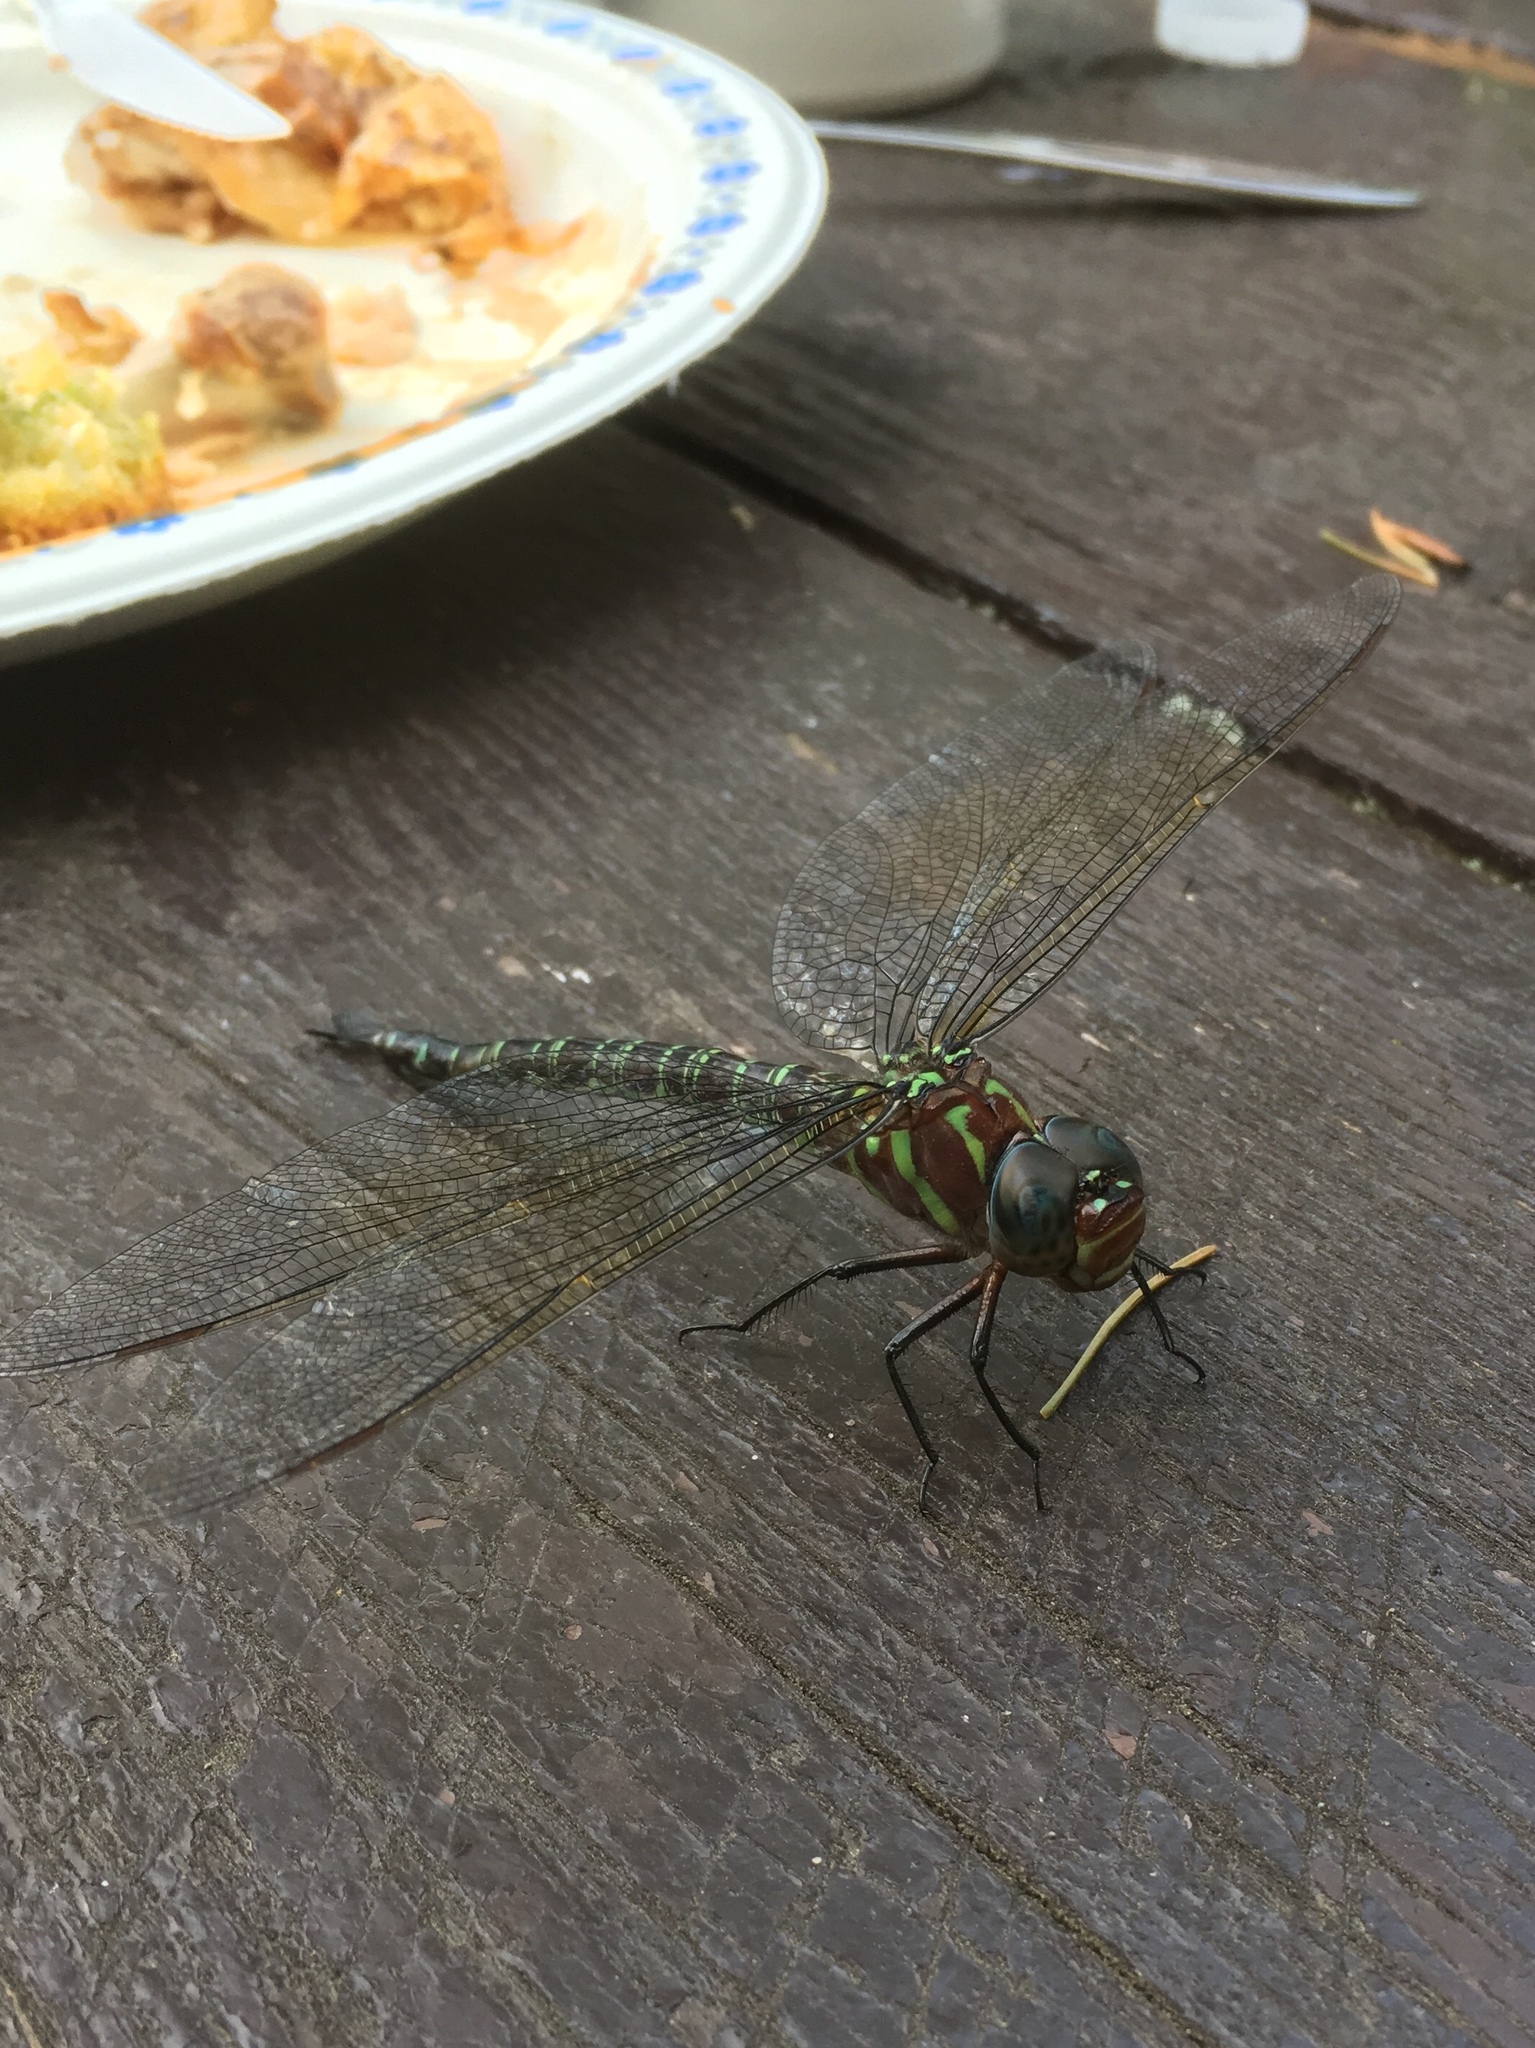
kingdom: Animalia
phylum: Arthropoda
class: Insecta
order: Odonata
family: Aeshnidae
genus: Epiaeschna
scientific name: Epiaeschna heros
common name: Swamp darner
